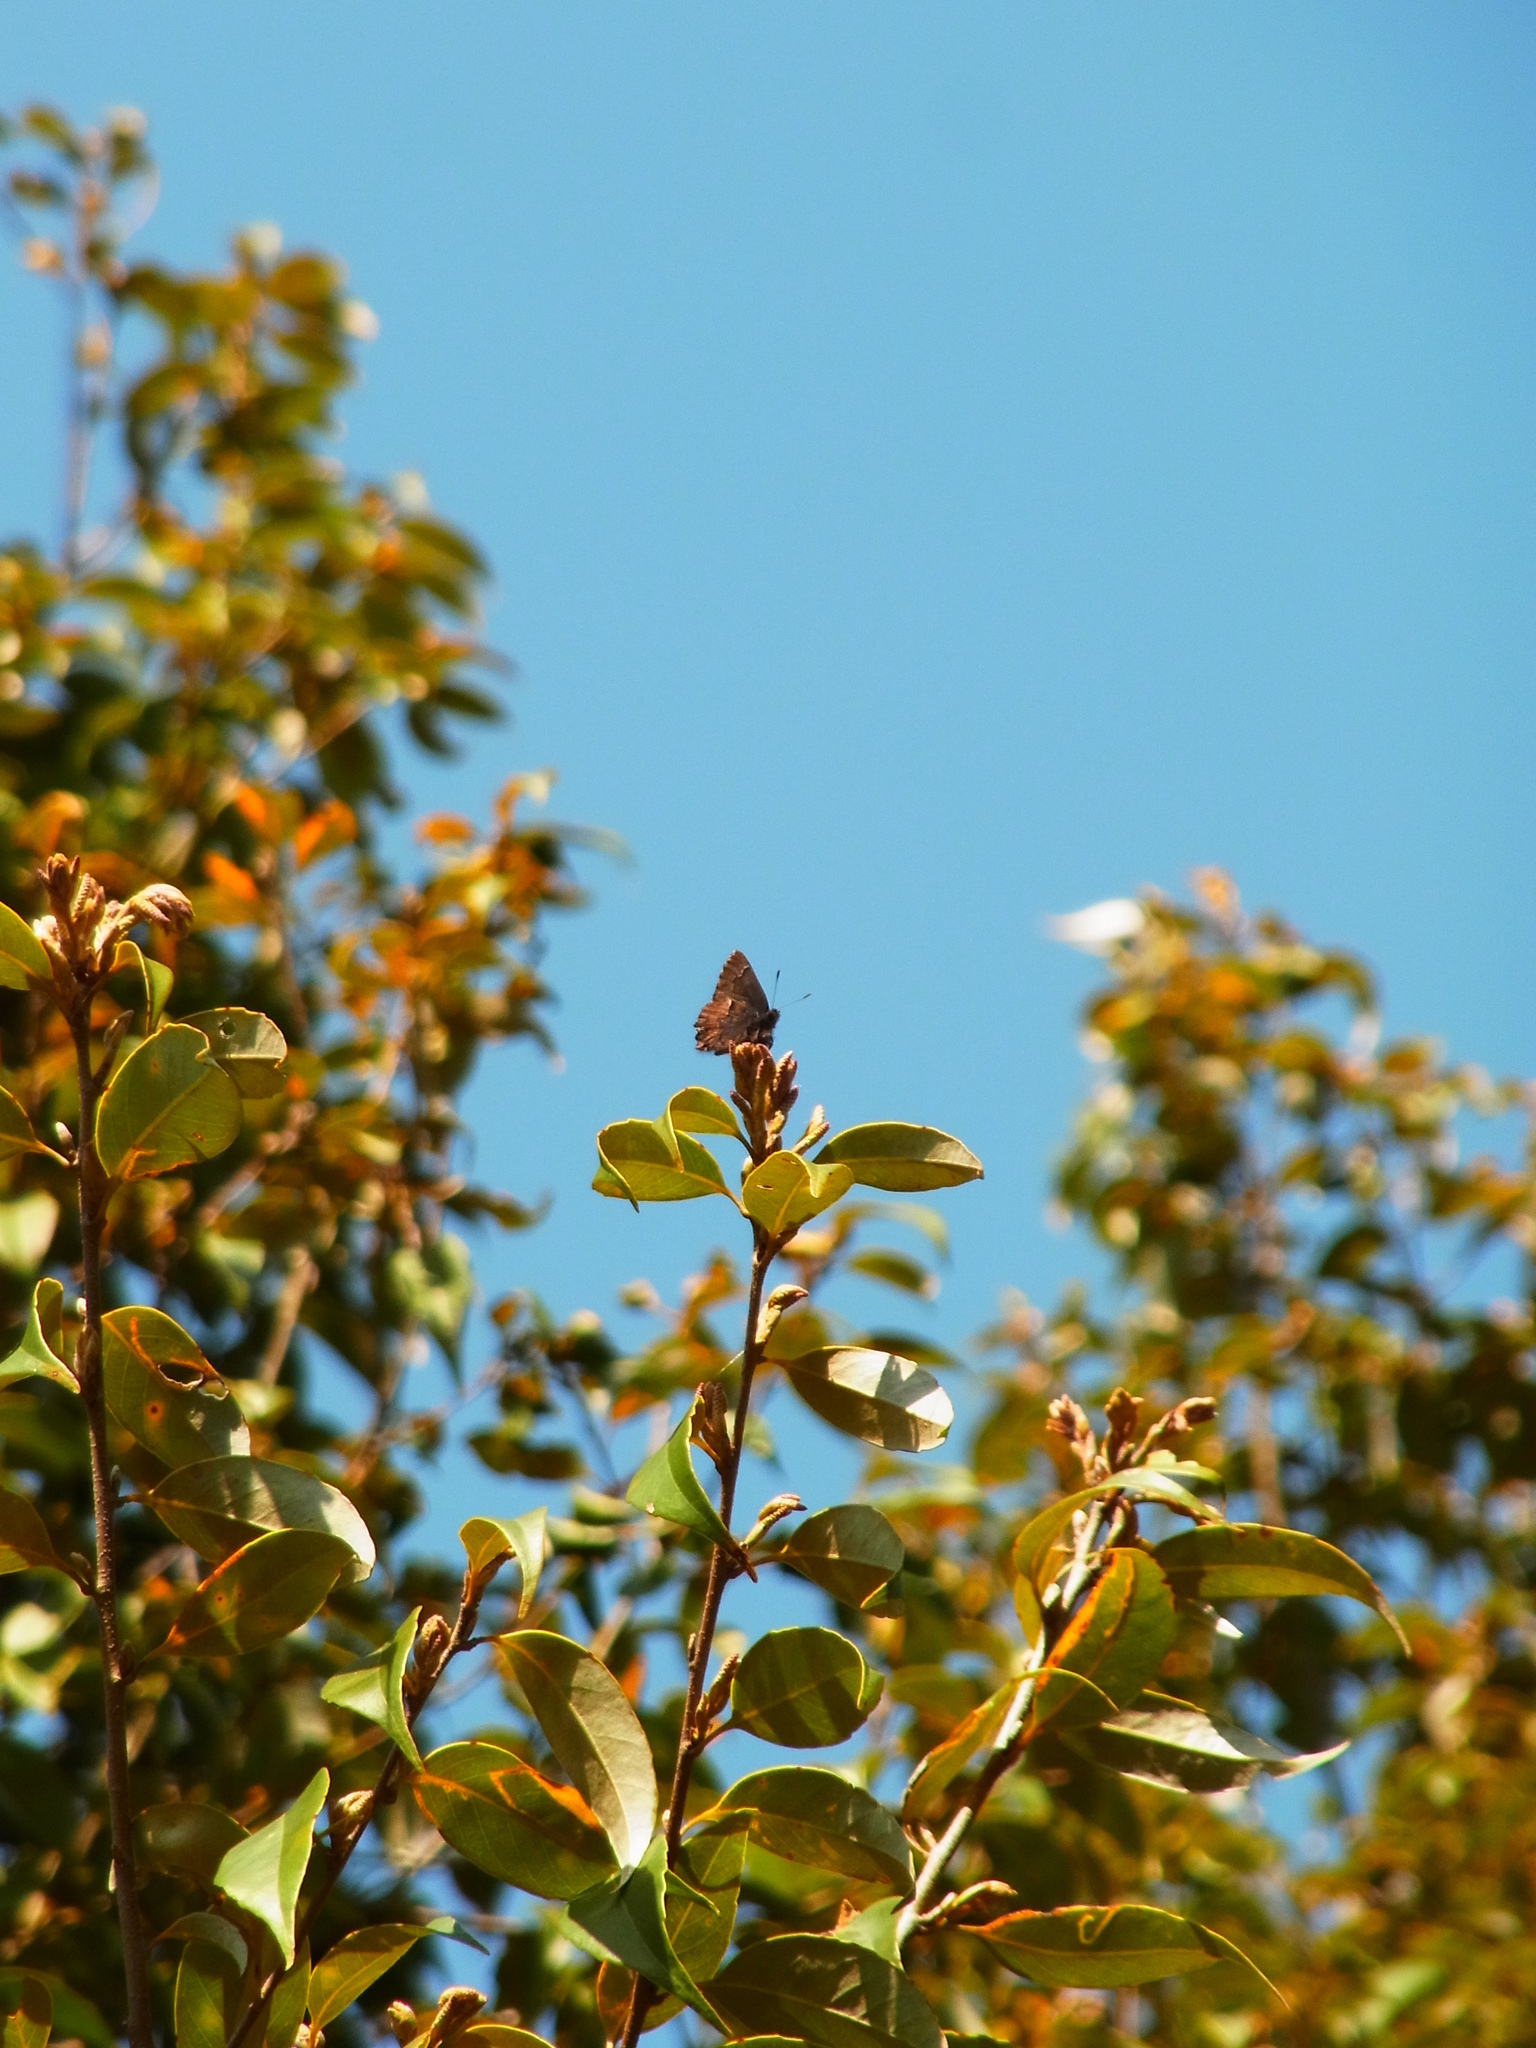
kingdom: Animalia
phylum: Arthropoda
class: Insecta
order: Lepidoptera
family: Lycaenidae
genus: Ginzia
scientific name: Ginzia frivaldsky
